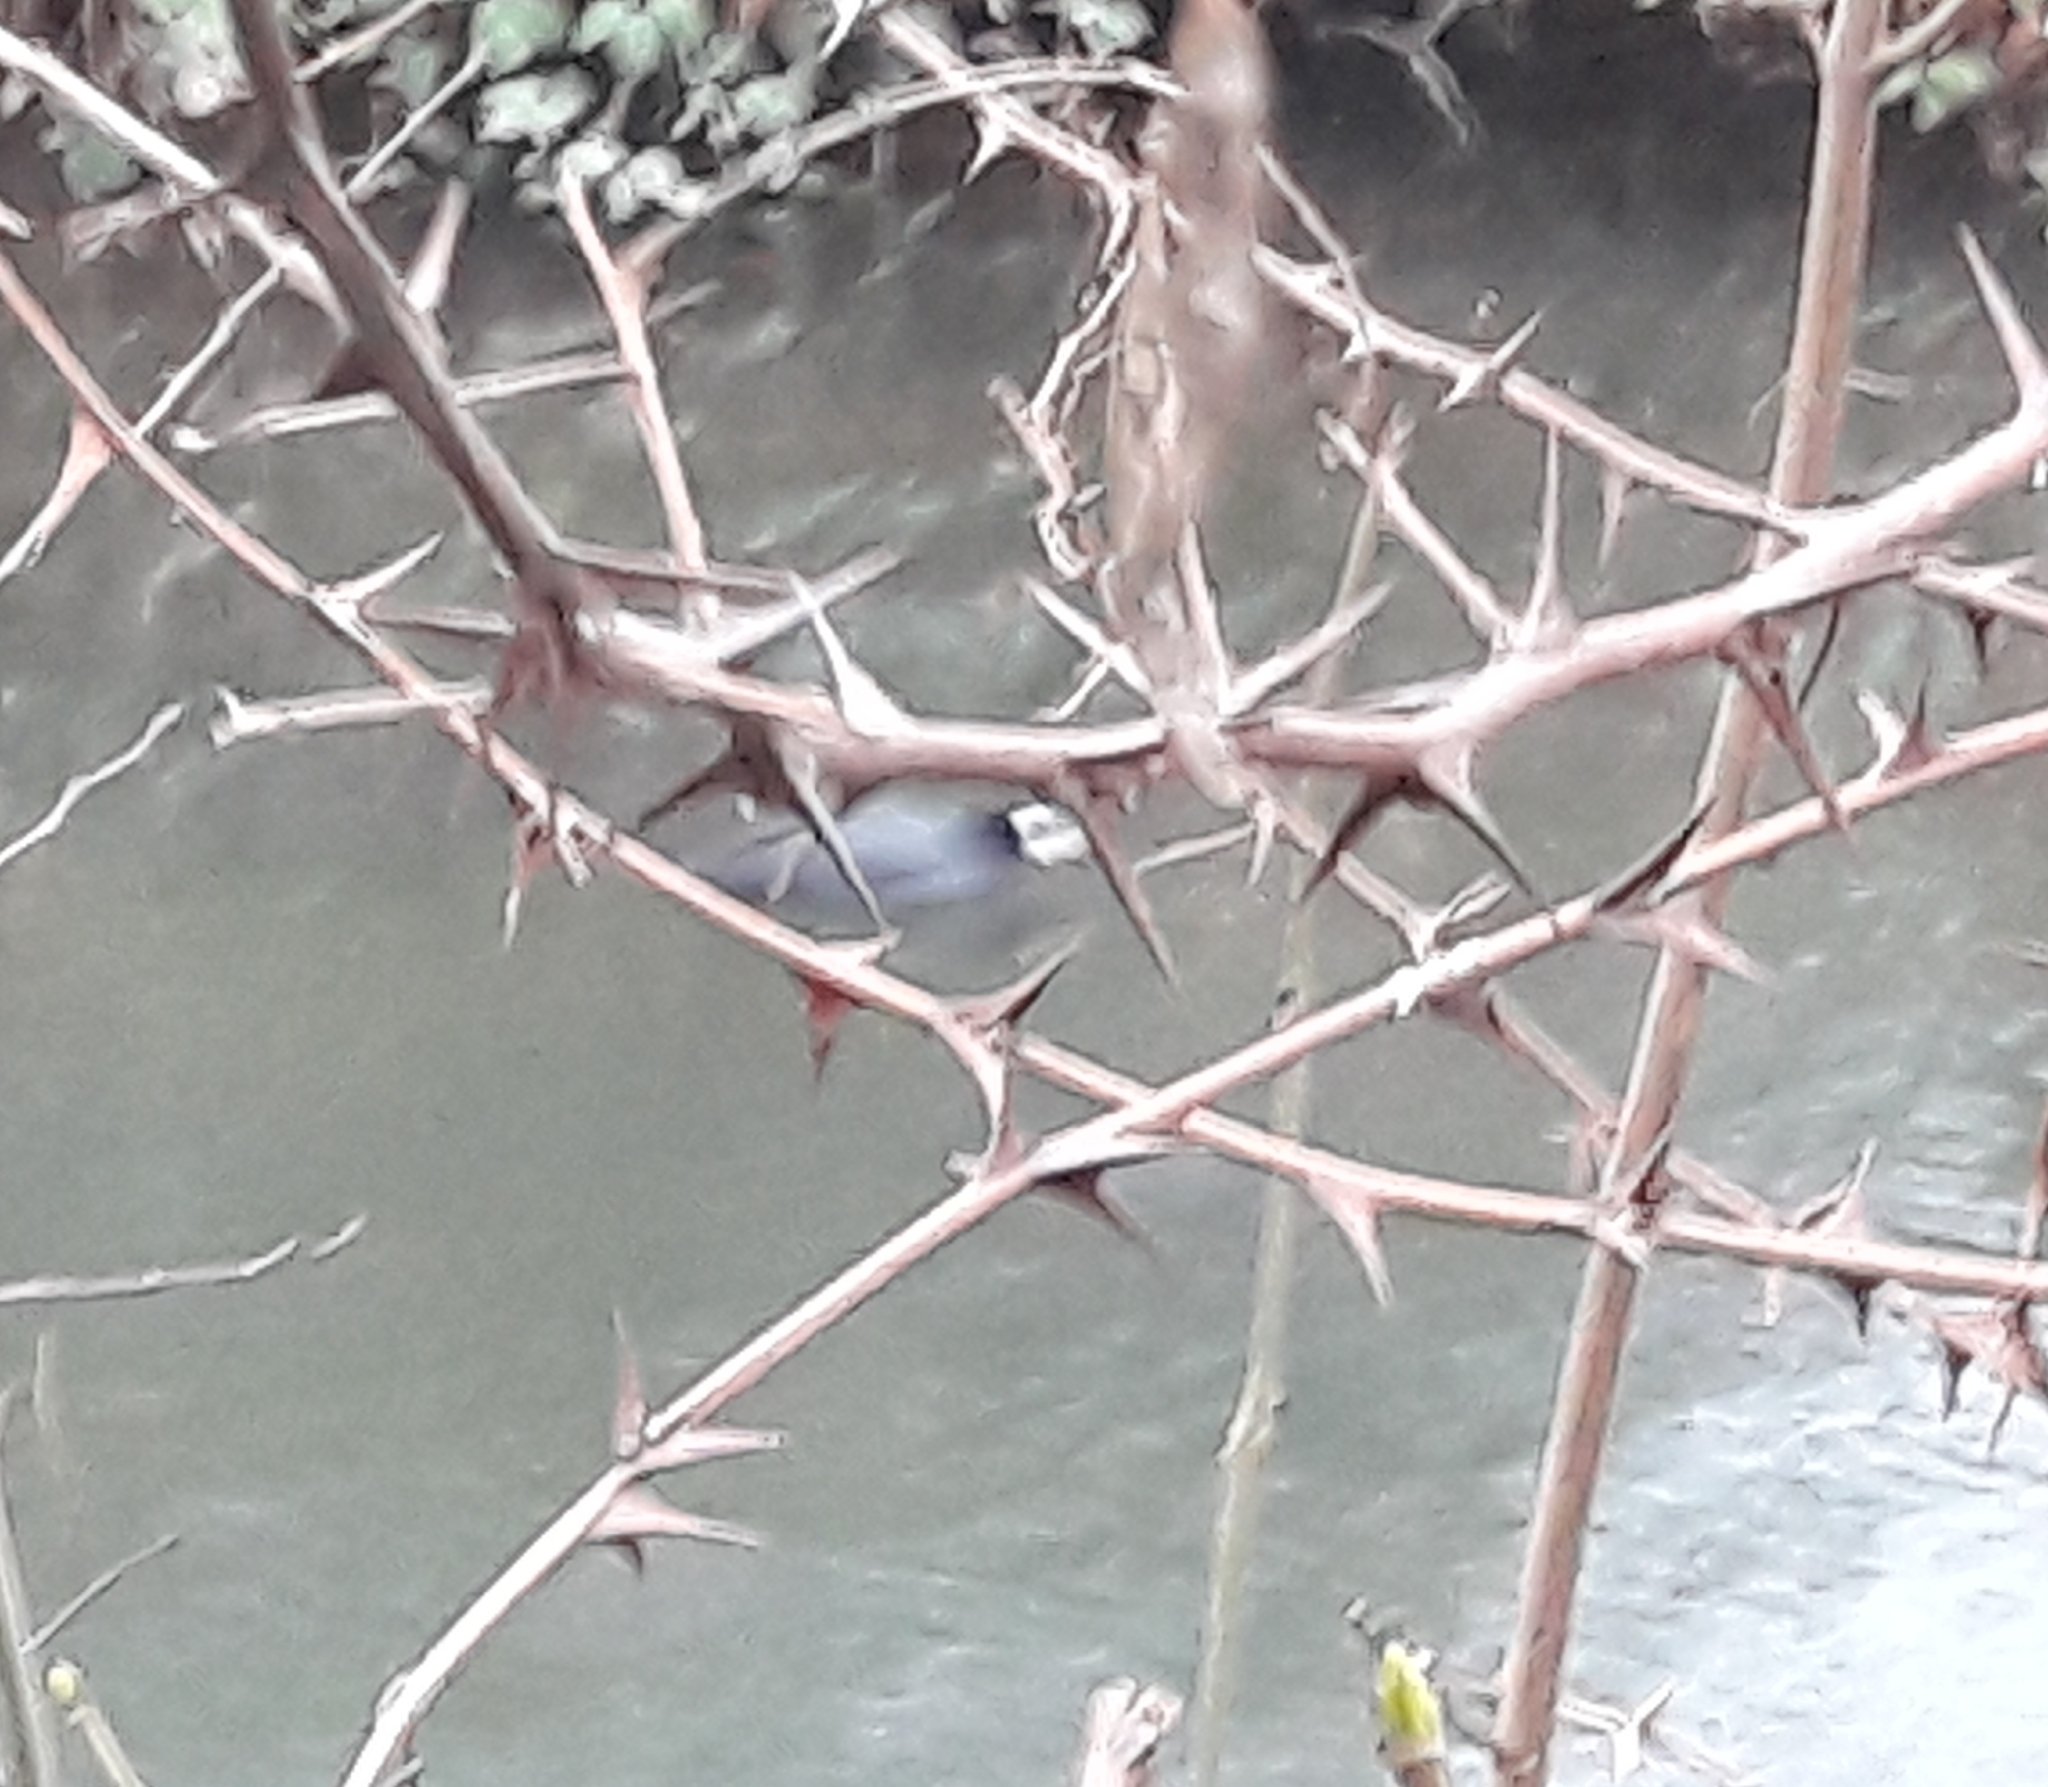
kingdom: Animalia
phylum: Chordata
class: Aves
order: Gruiformes
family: Rallidae
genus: Fulica
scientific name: Fulica atra
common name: Eurasian coot
